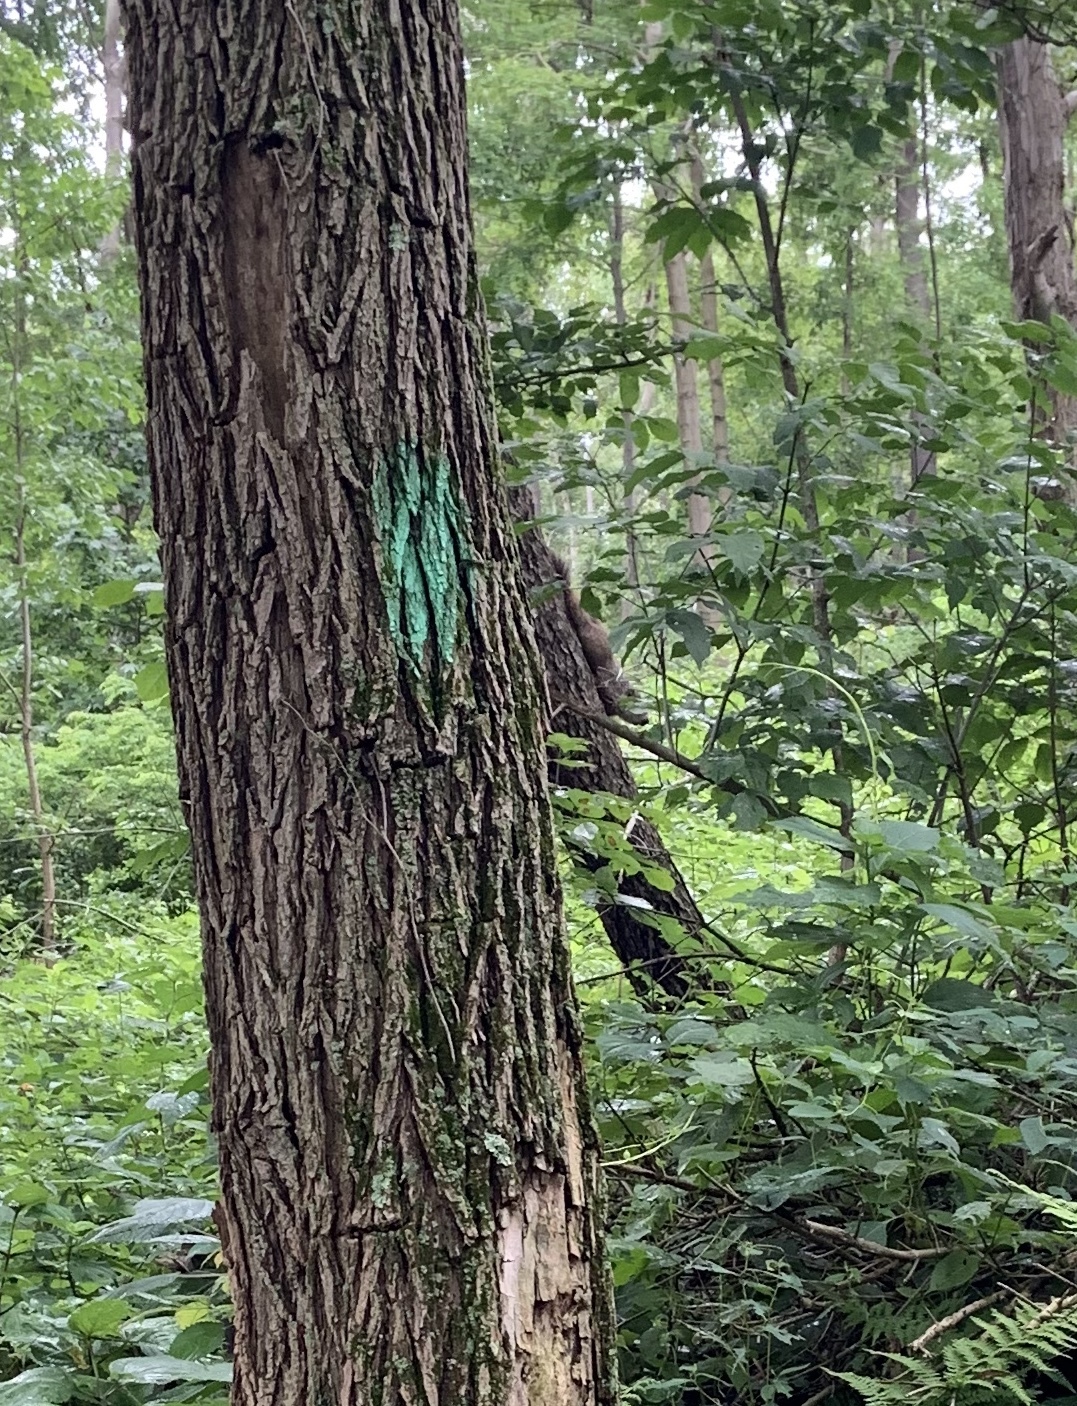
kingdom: Animalia
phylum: Chordata
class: Mammalia
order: Rodentia
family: Sciuridae
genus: Marmota
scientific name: Marmota monax
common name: Groundhog
